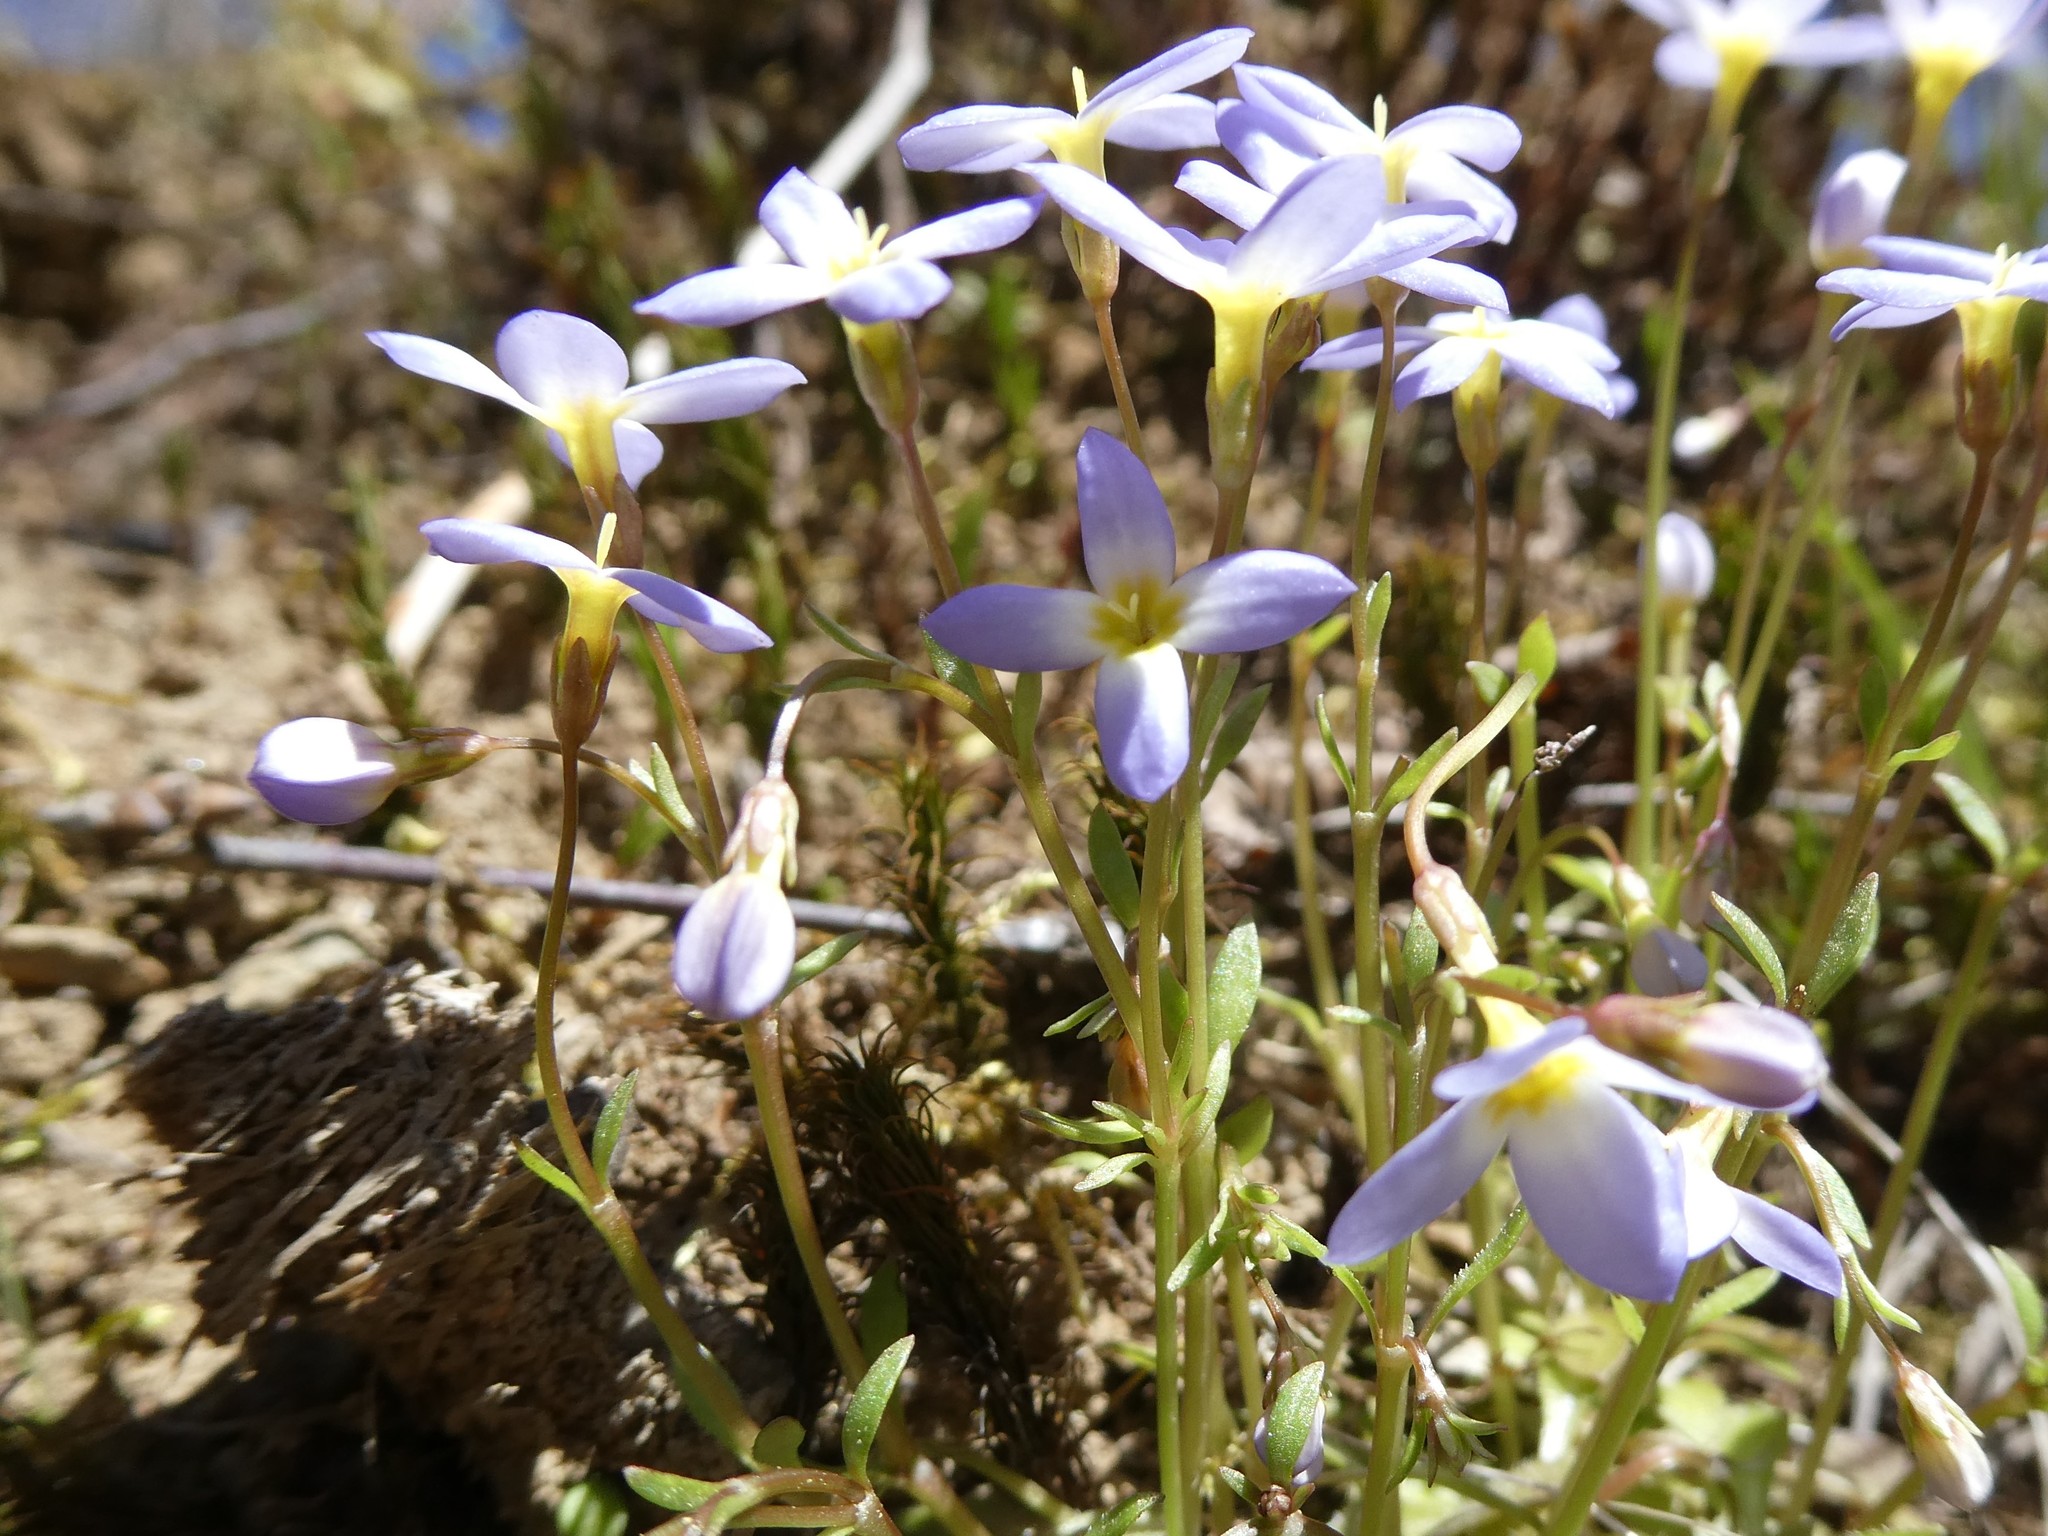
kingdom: Plantae
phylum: Tracheophyta
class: Magnoliopsida
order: Gentianales
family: Rubiaceae
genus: Houstonia
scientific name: Houstonia caerulea
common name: Bluets
